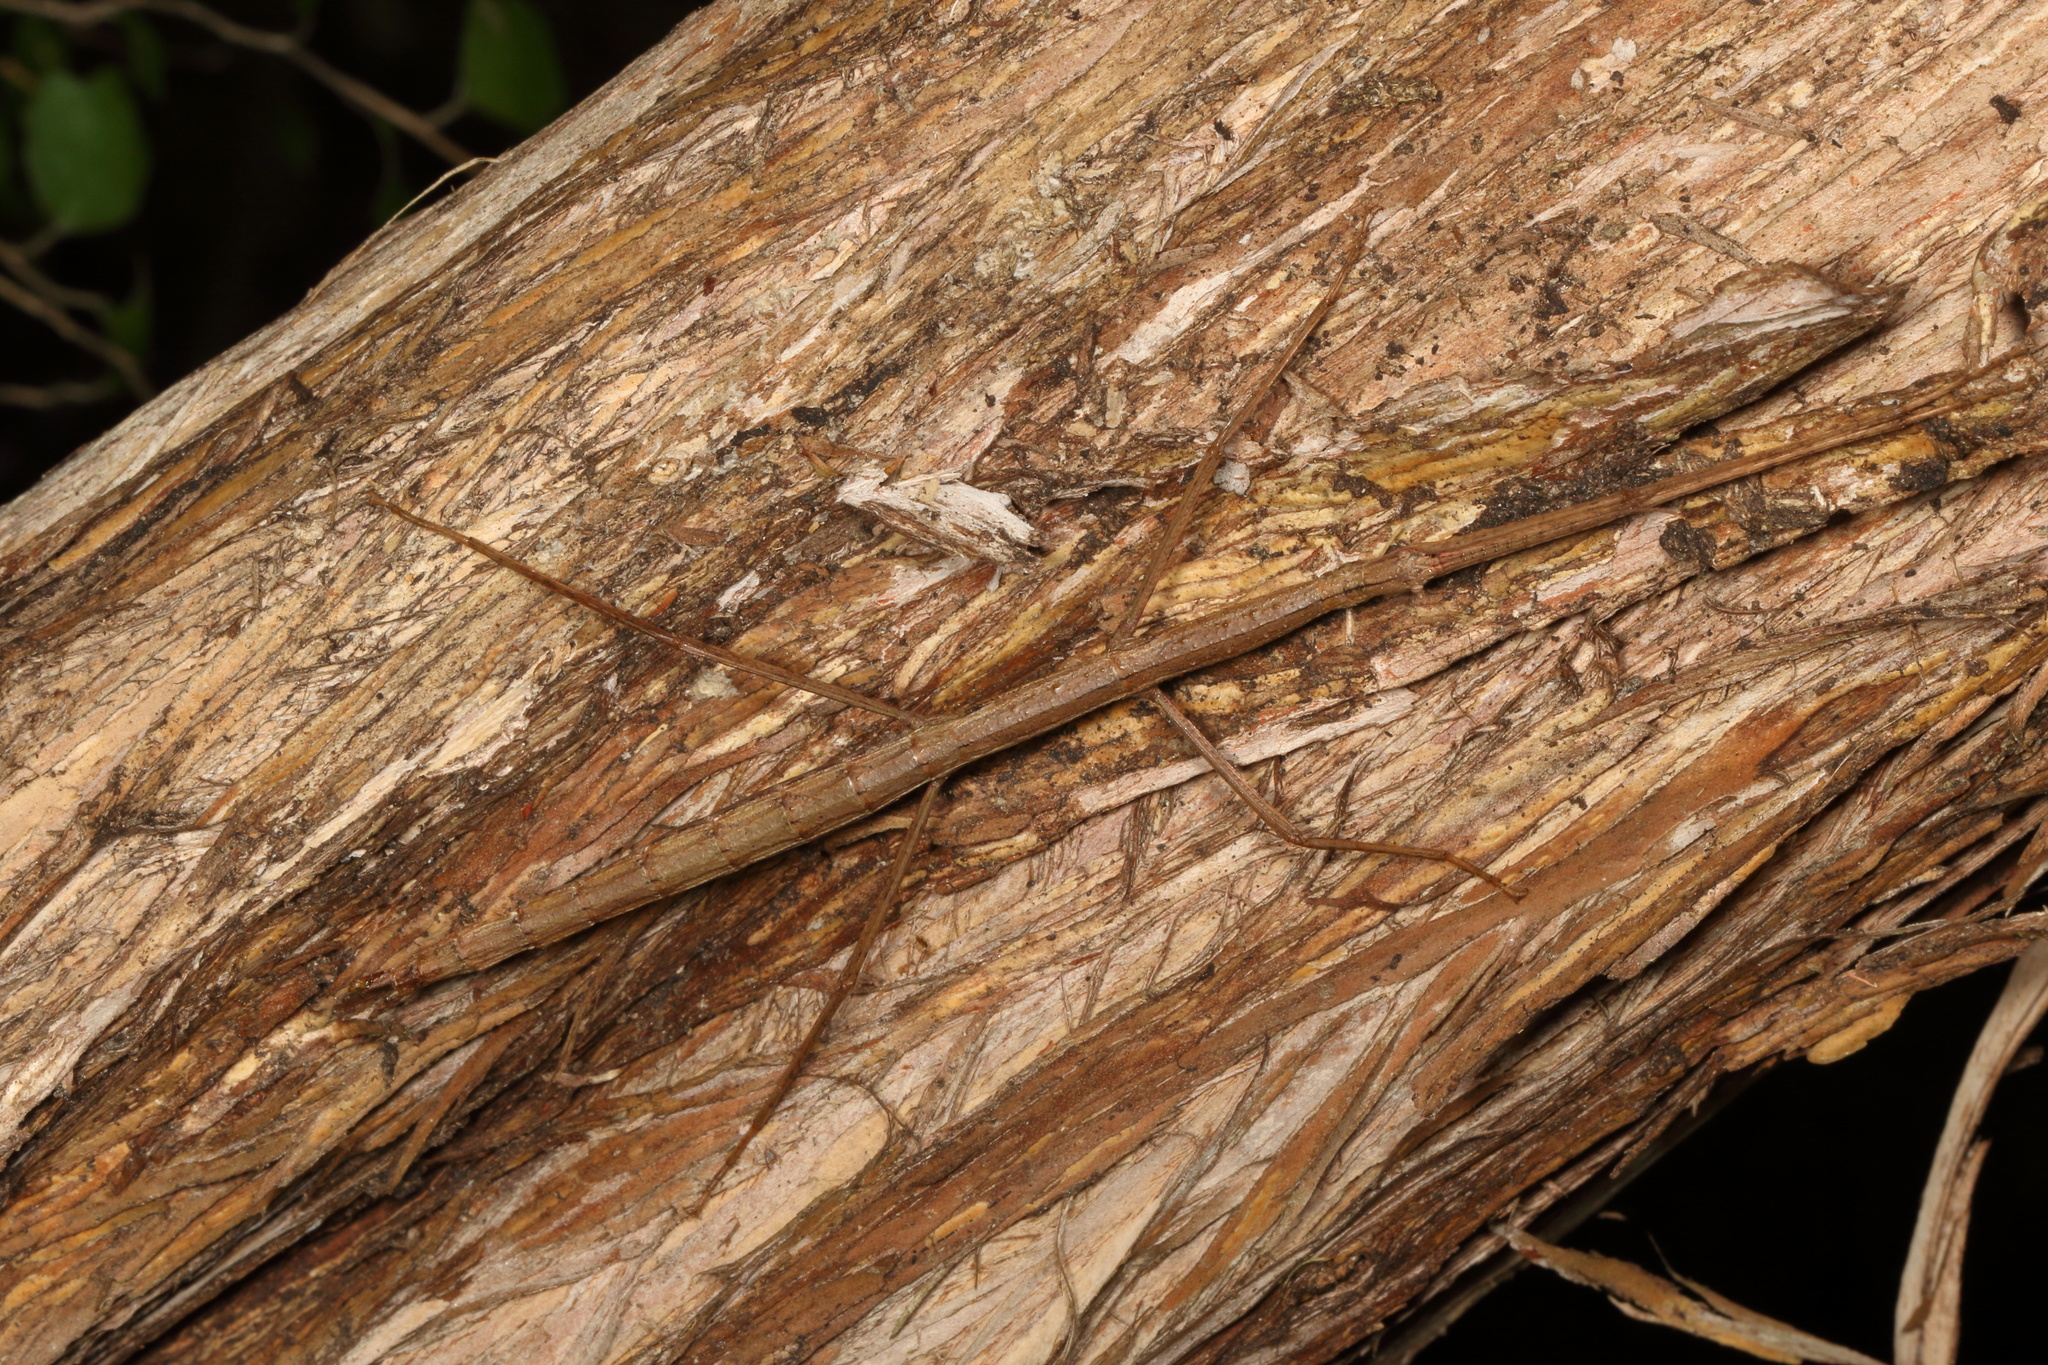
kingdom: Animalia
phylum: Arthropoda
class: Insecta
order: Phasmida
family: Phasmatidae
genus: Clitarchus
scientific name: Clitarchus hookeri
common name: Smooth stick insect
